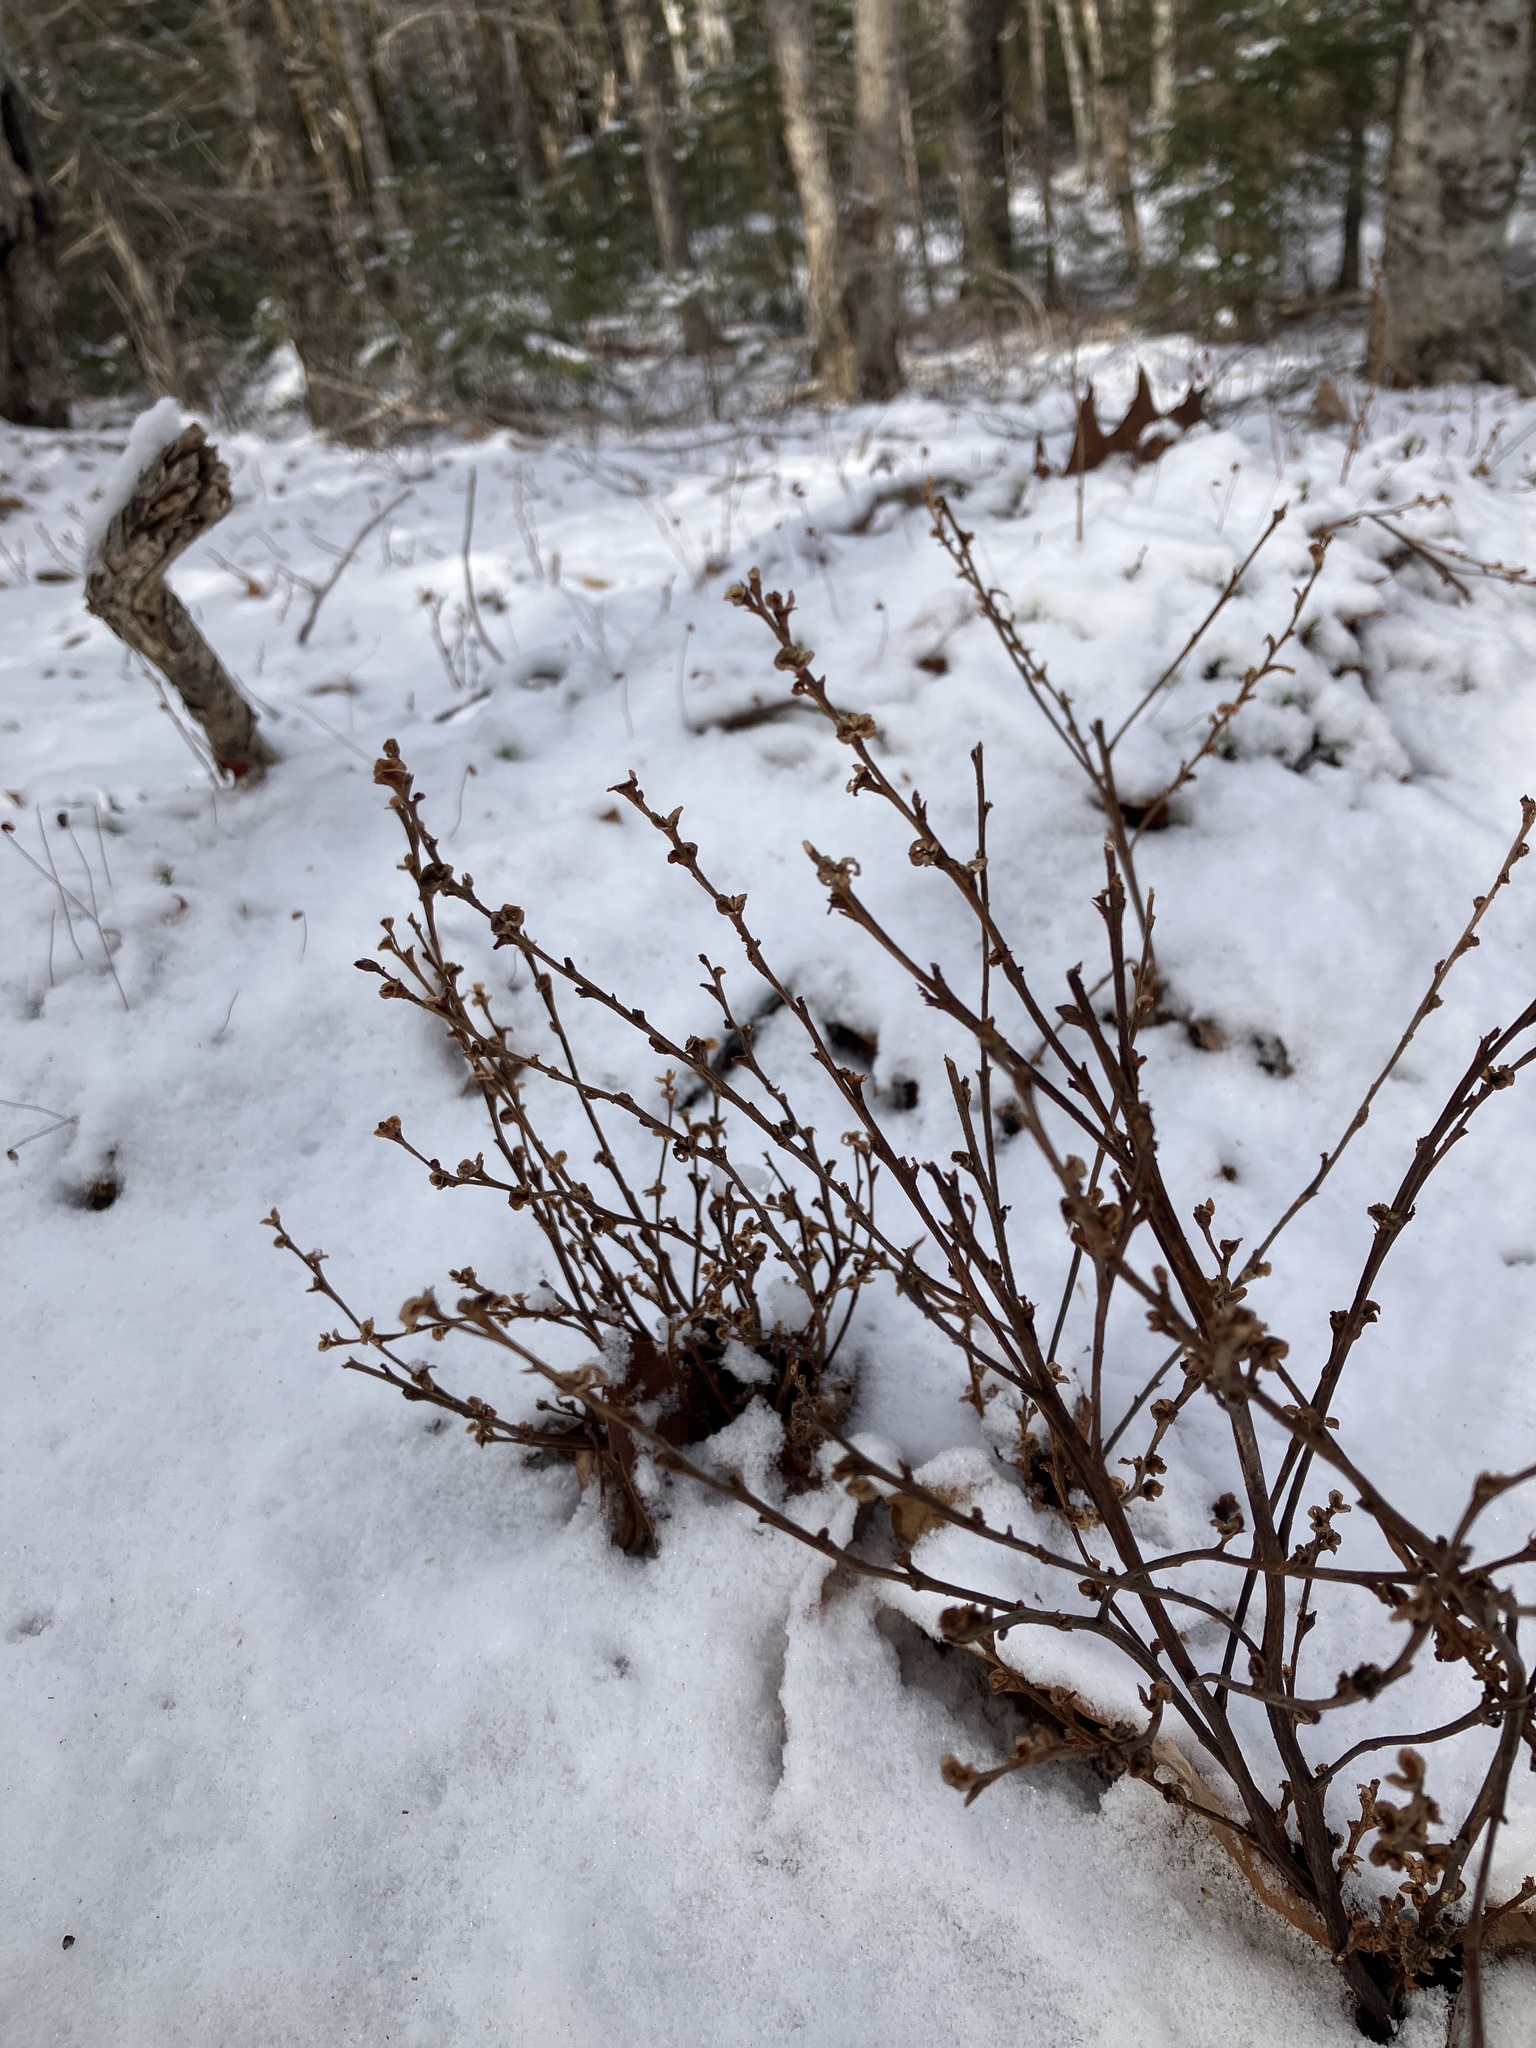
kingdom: Plantae
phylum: Tracheophyta
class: Magnoliopsida
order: Lamiales
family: Orobanchaceae
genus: Epifagus
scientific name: Epifagus virginiana
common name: Beechdrops
